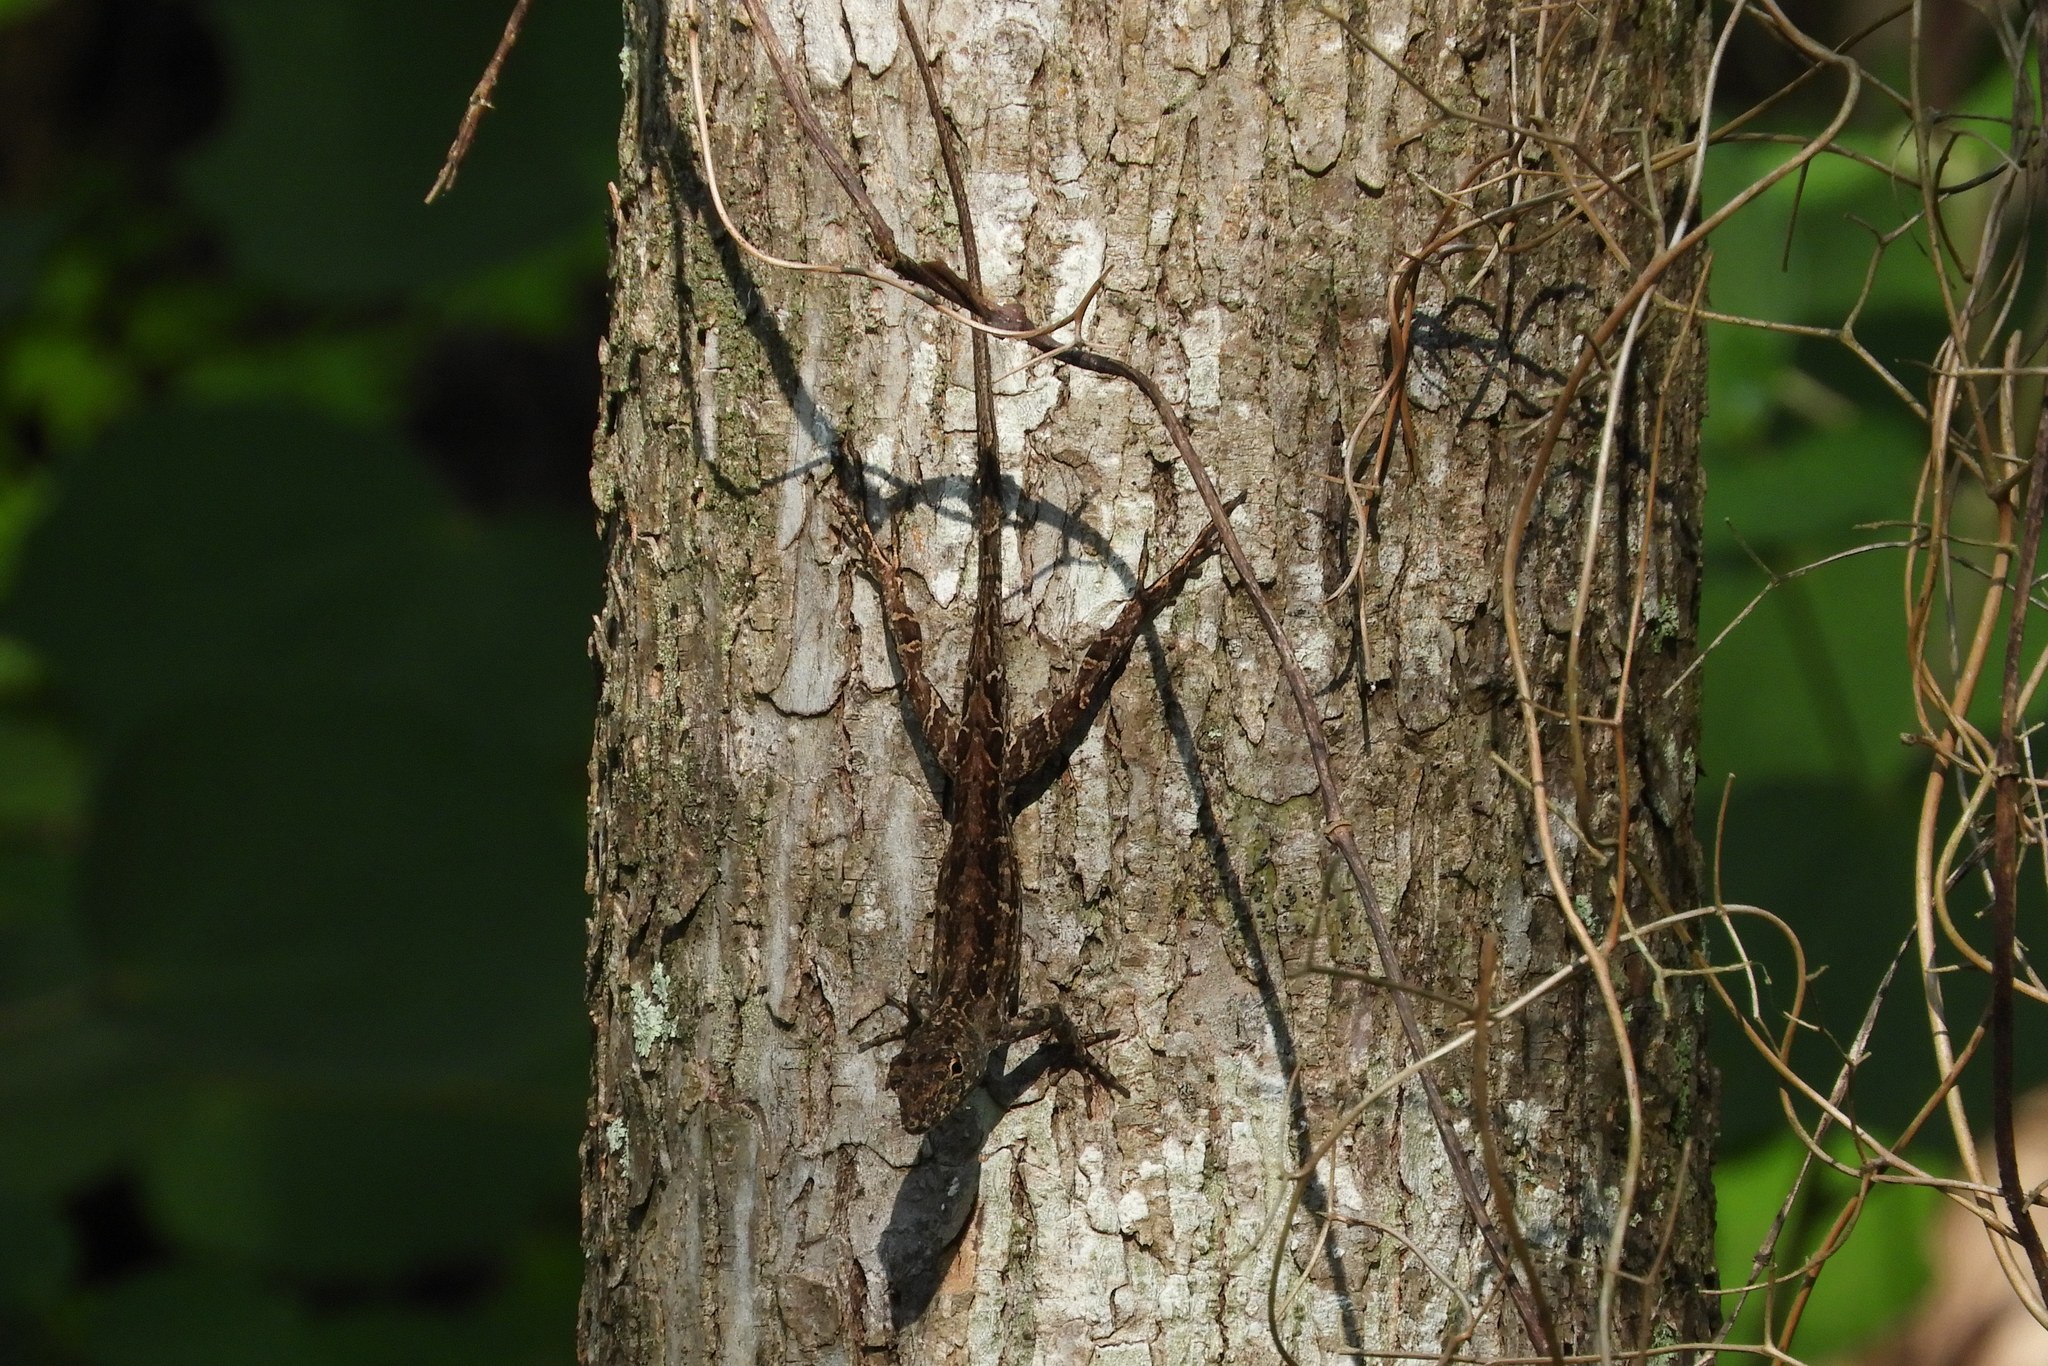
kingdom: Animalia
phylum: Chordata
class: Squamata
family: Dactyloidae
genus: Anolis
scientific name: Anolis sagrei
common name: Brown anole
